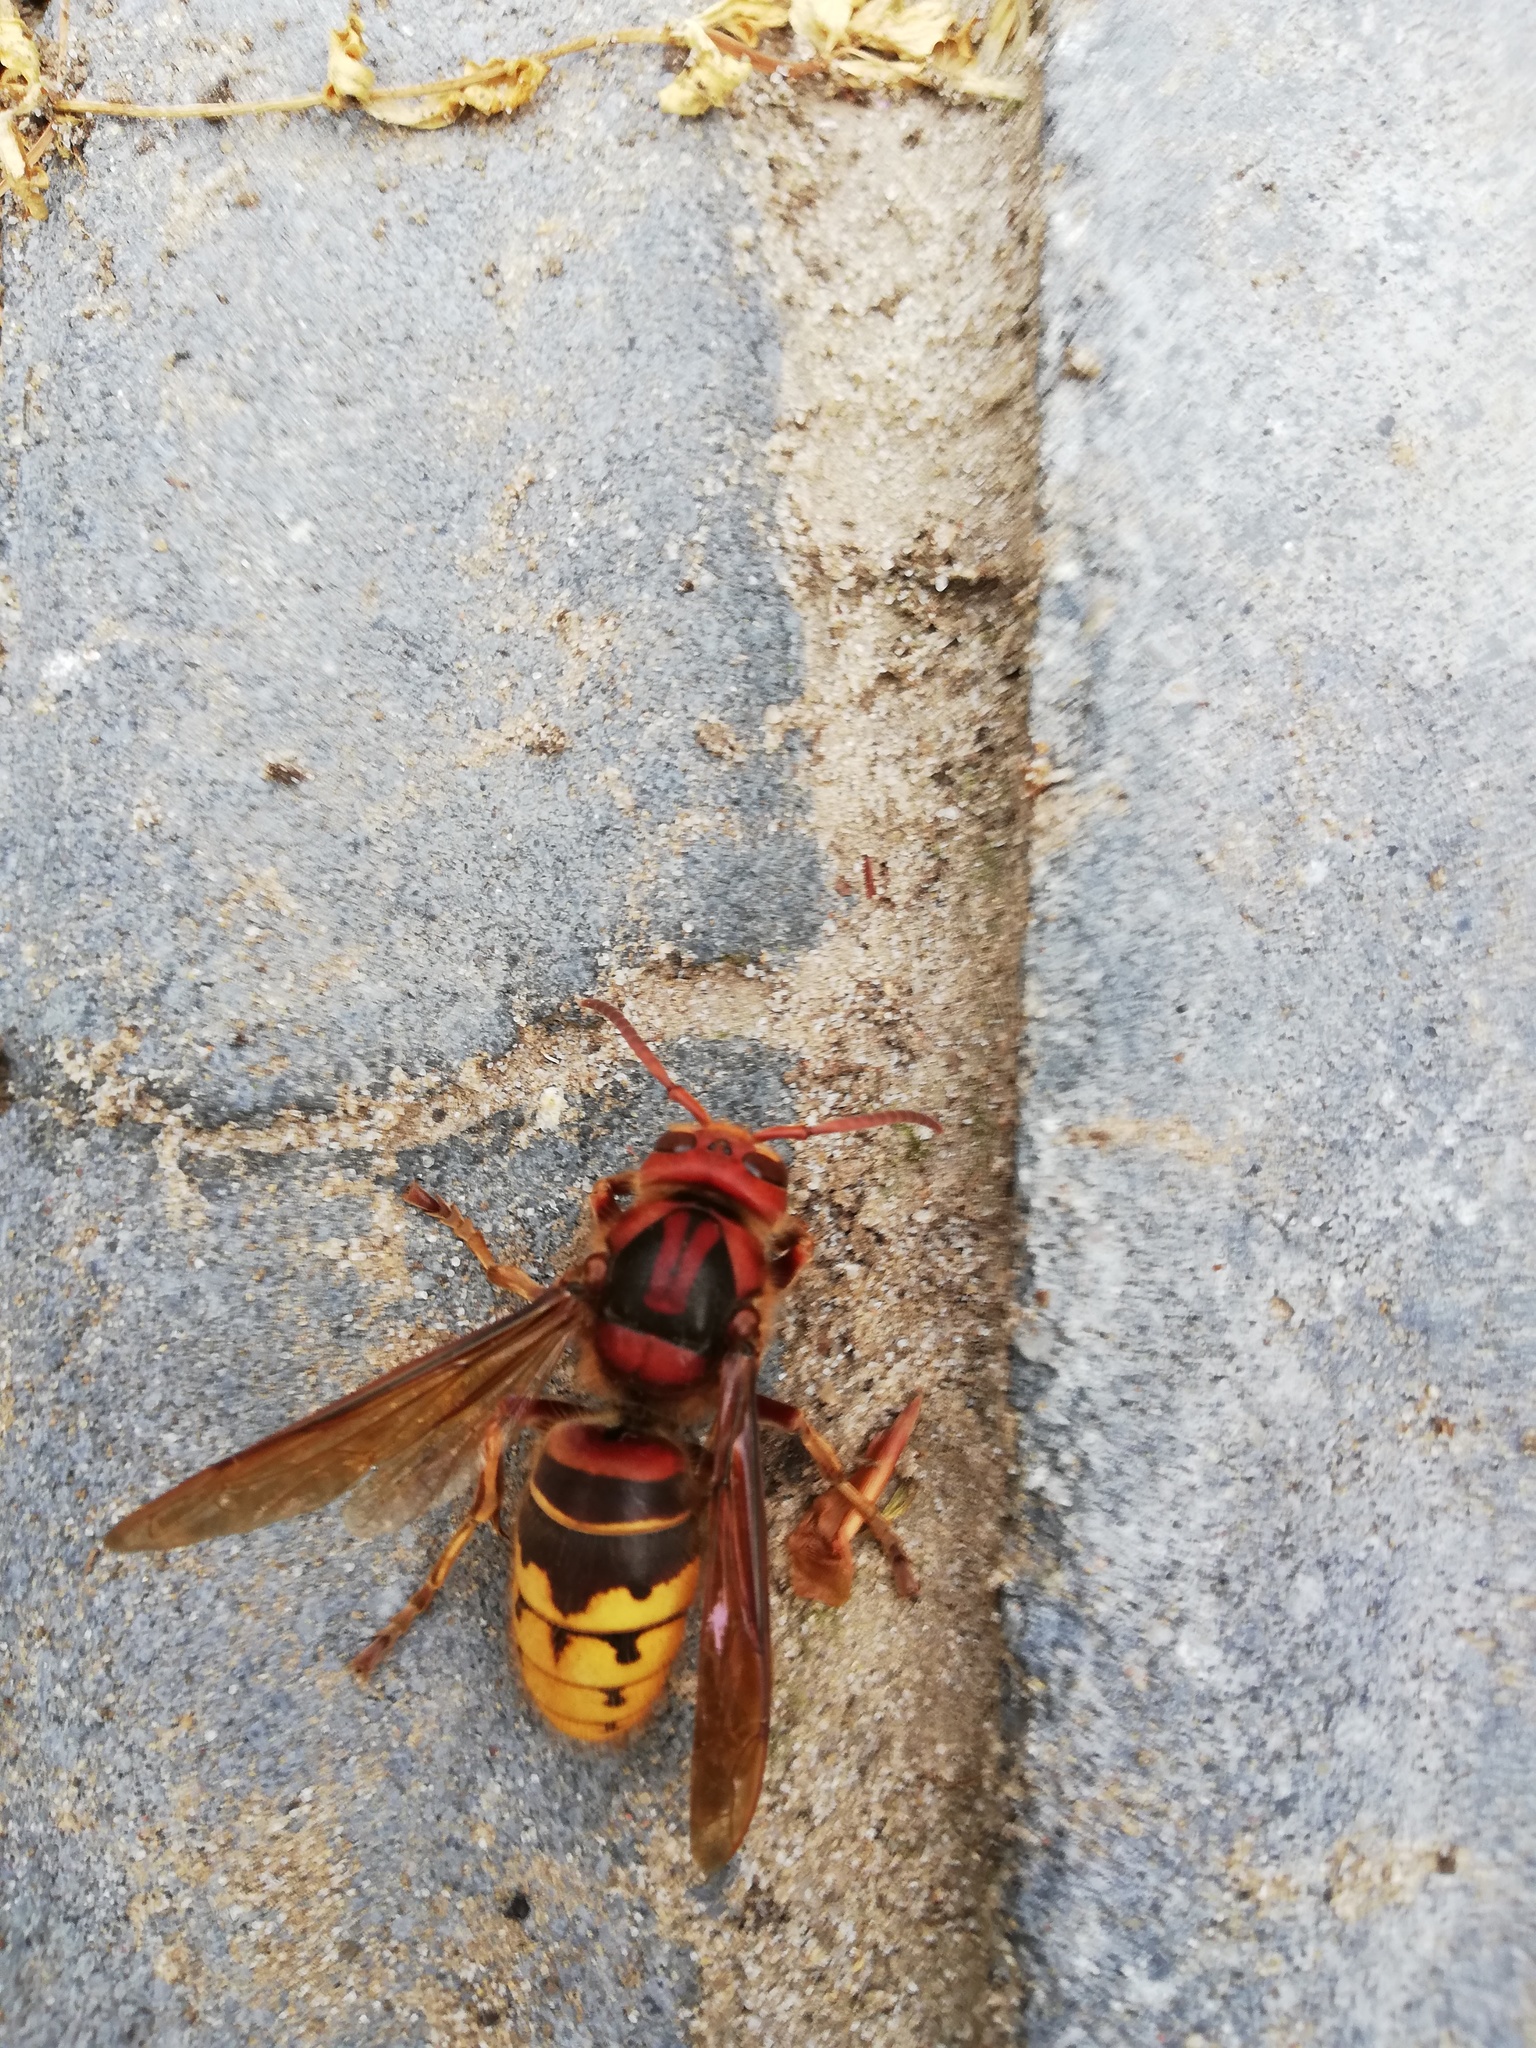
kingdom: Animalia
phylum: Arthropoda
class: Insecta
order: Hymenoptera
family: Vespidae
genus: Vespa
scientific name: Vespa crabro
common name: Hornet
